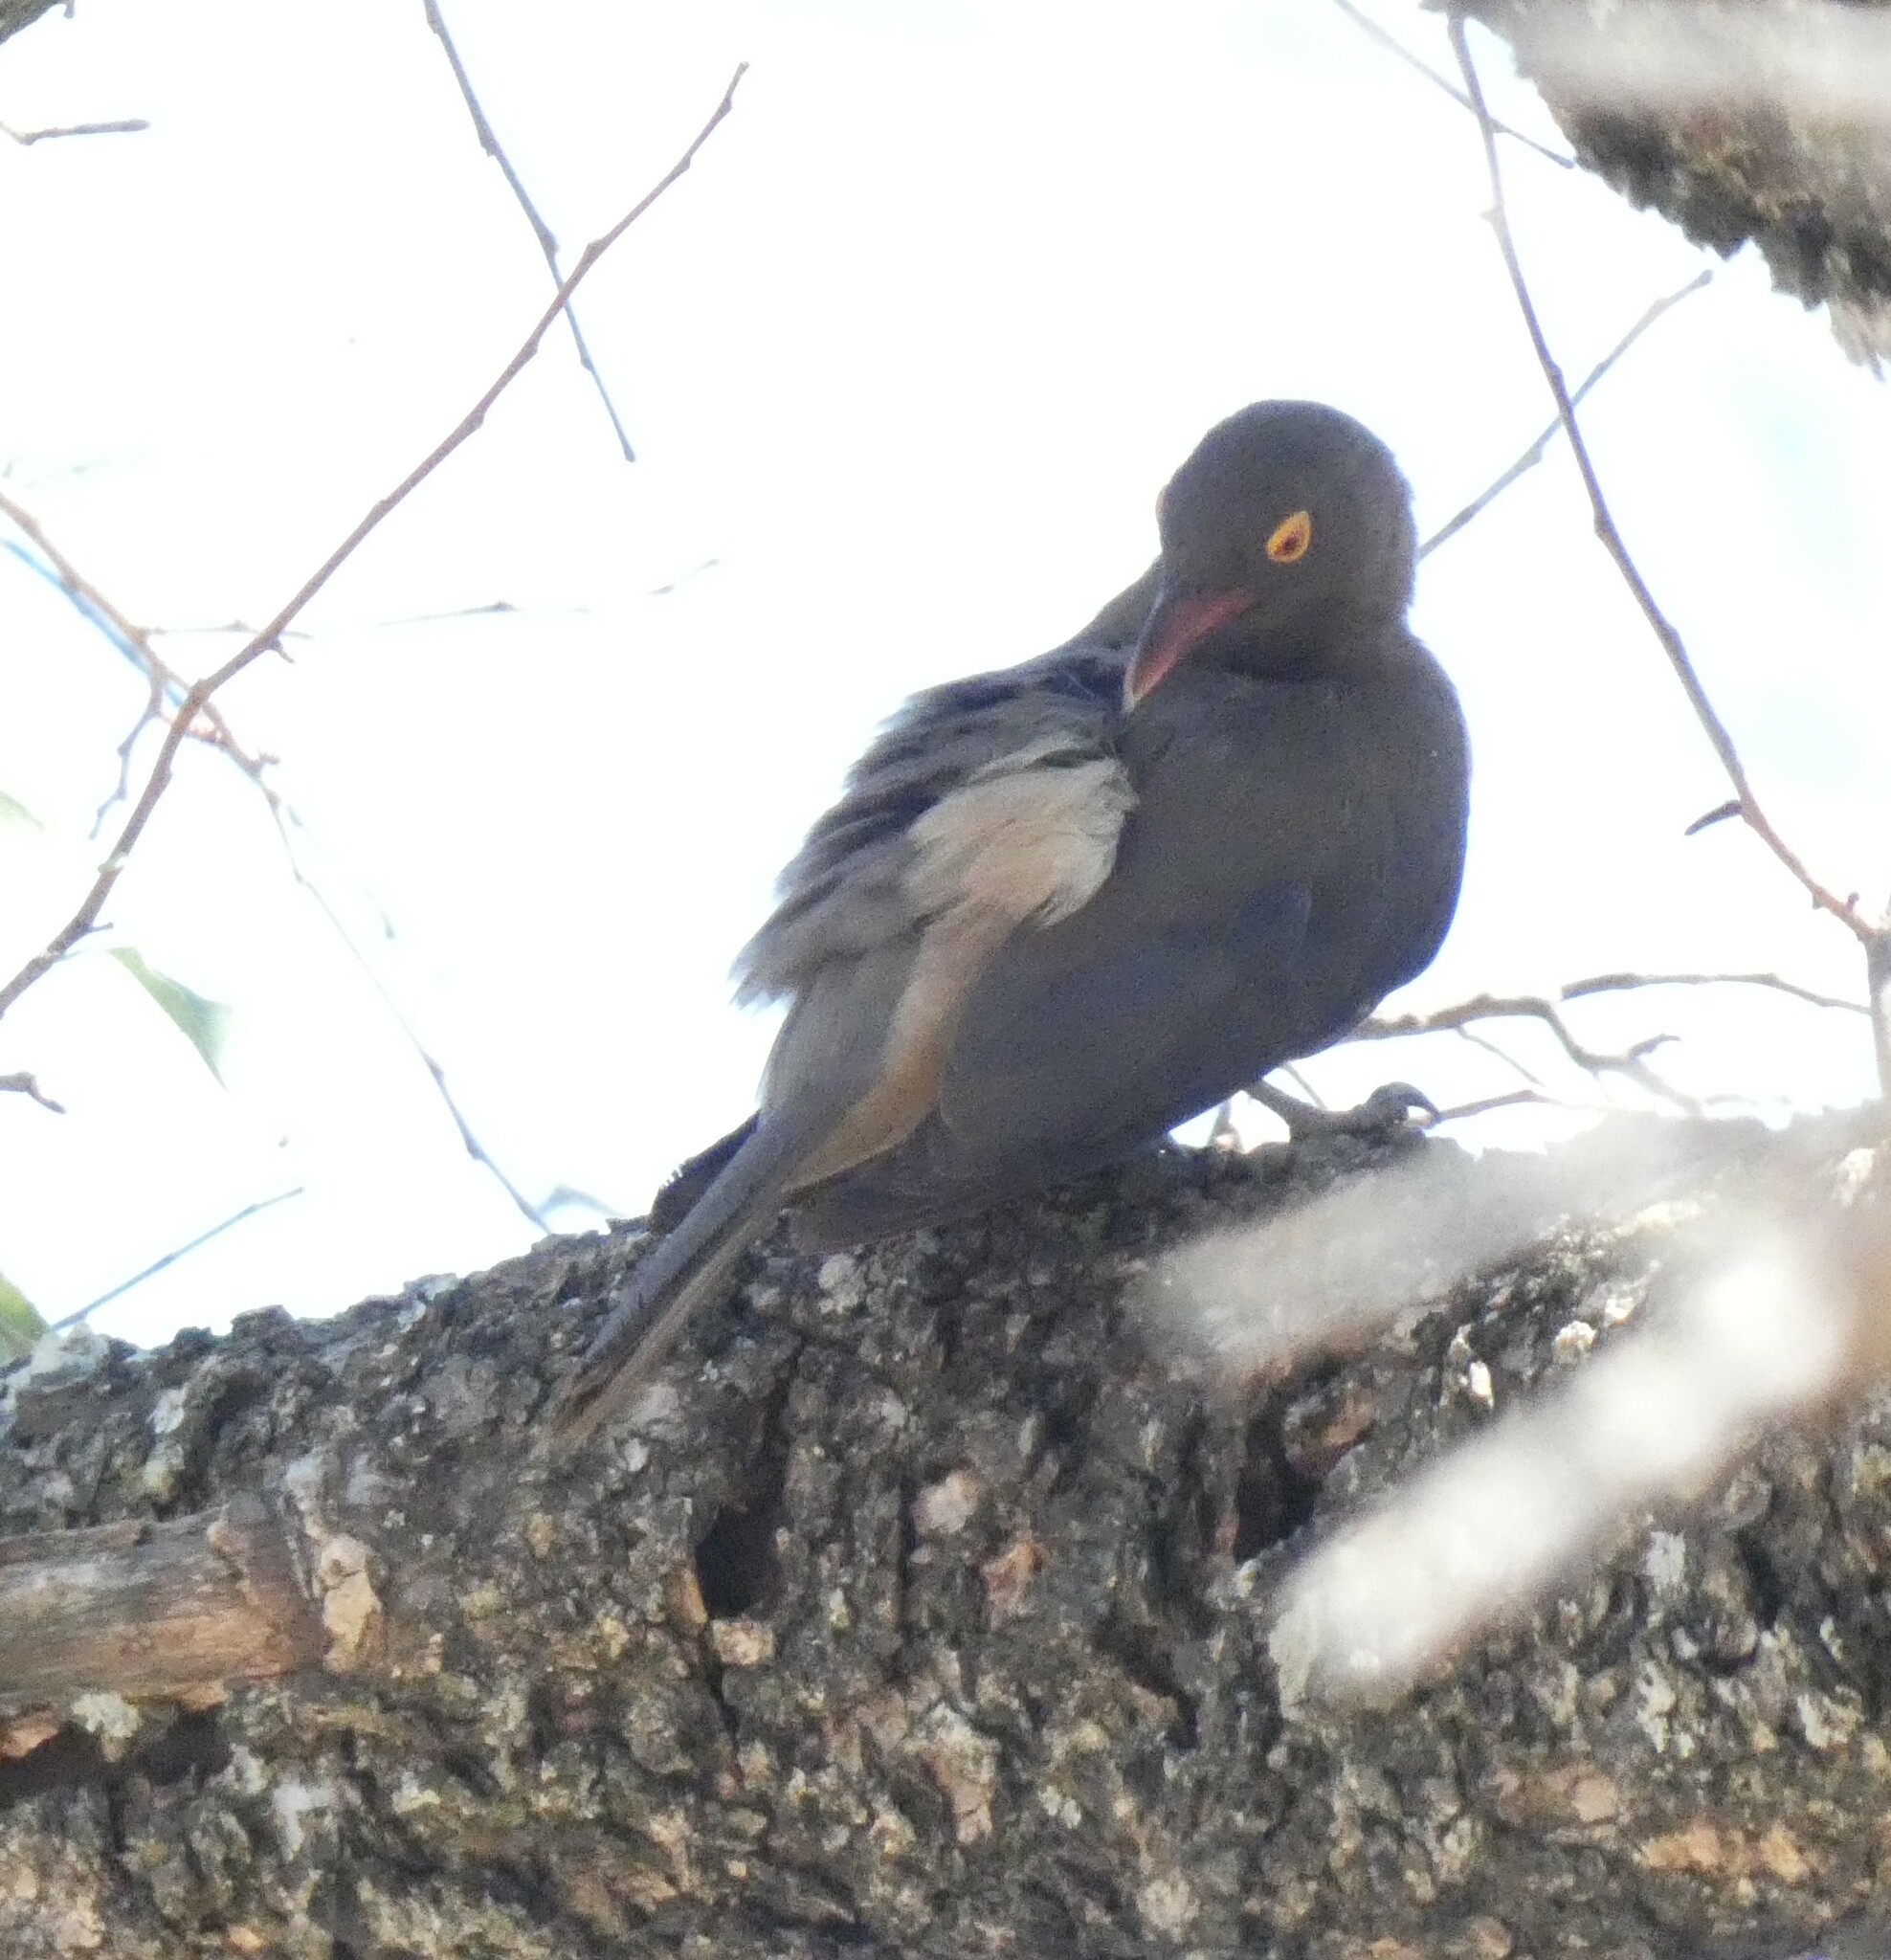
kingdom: Animalia
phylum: Chordata
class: Aves
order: Passeriformes
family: Buphagidae
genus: Buphagus
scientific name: Buphagus erythrorhynchus
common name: Red-billed oxpecker
